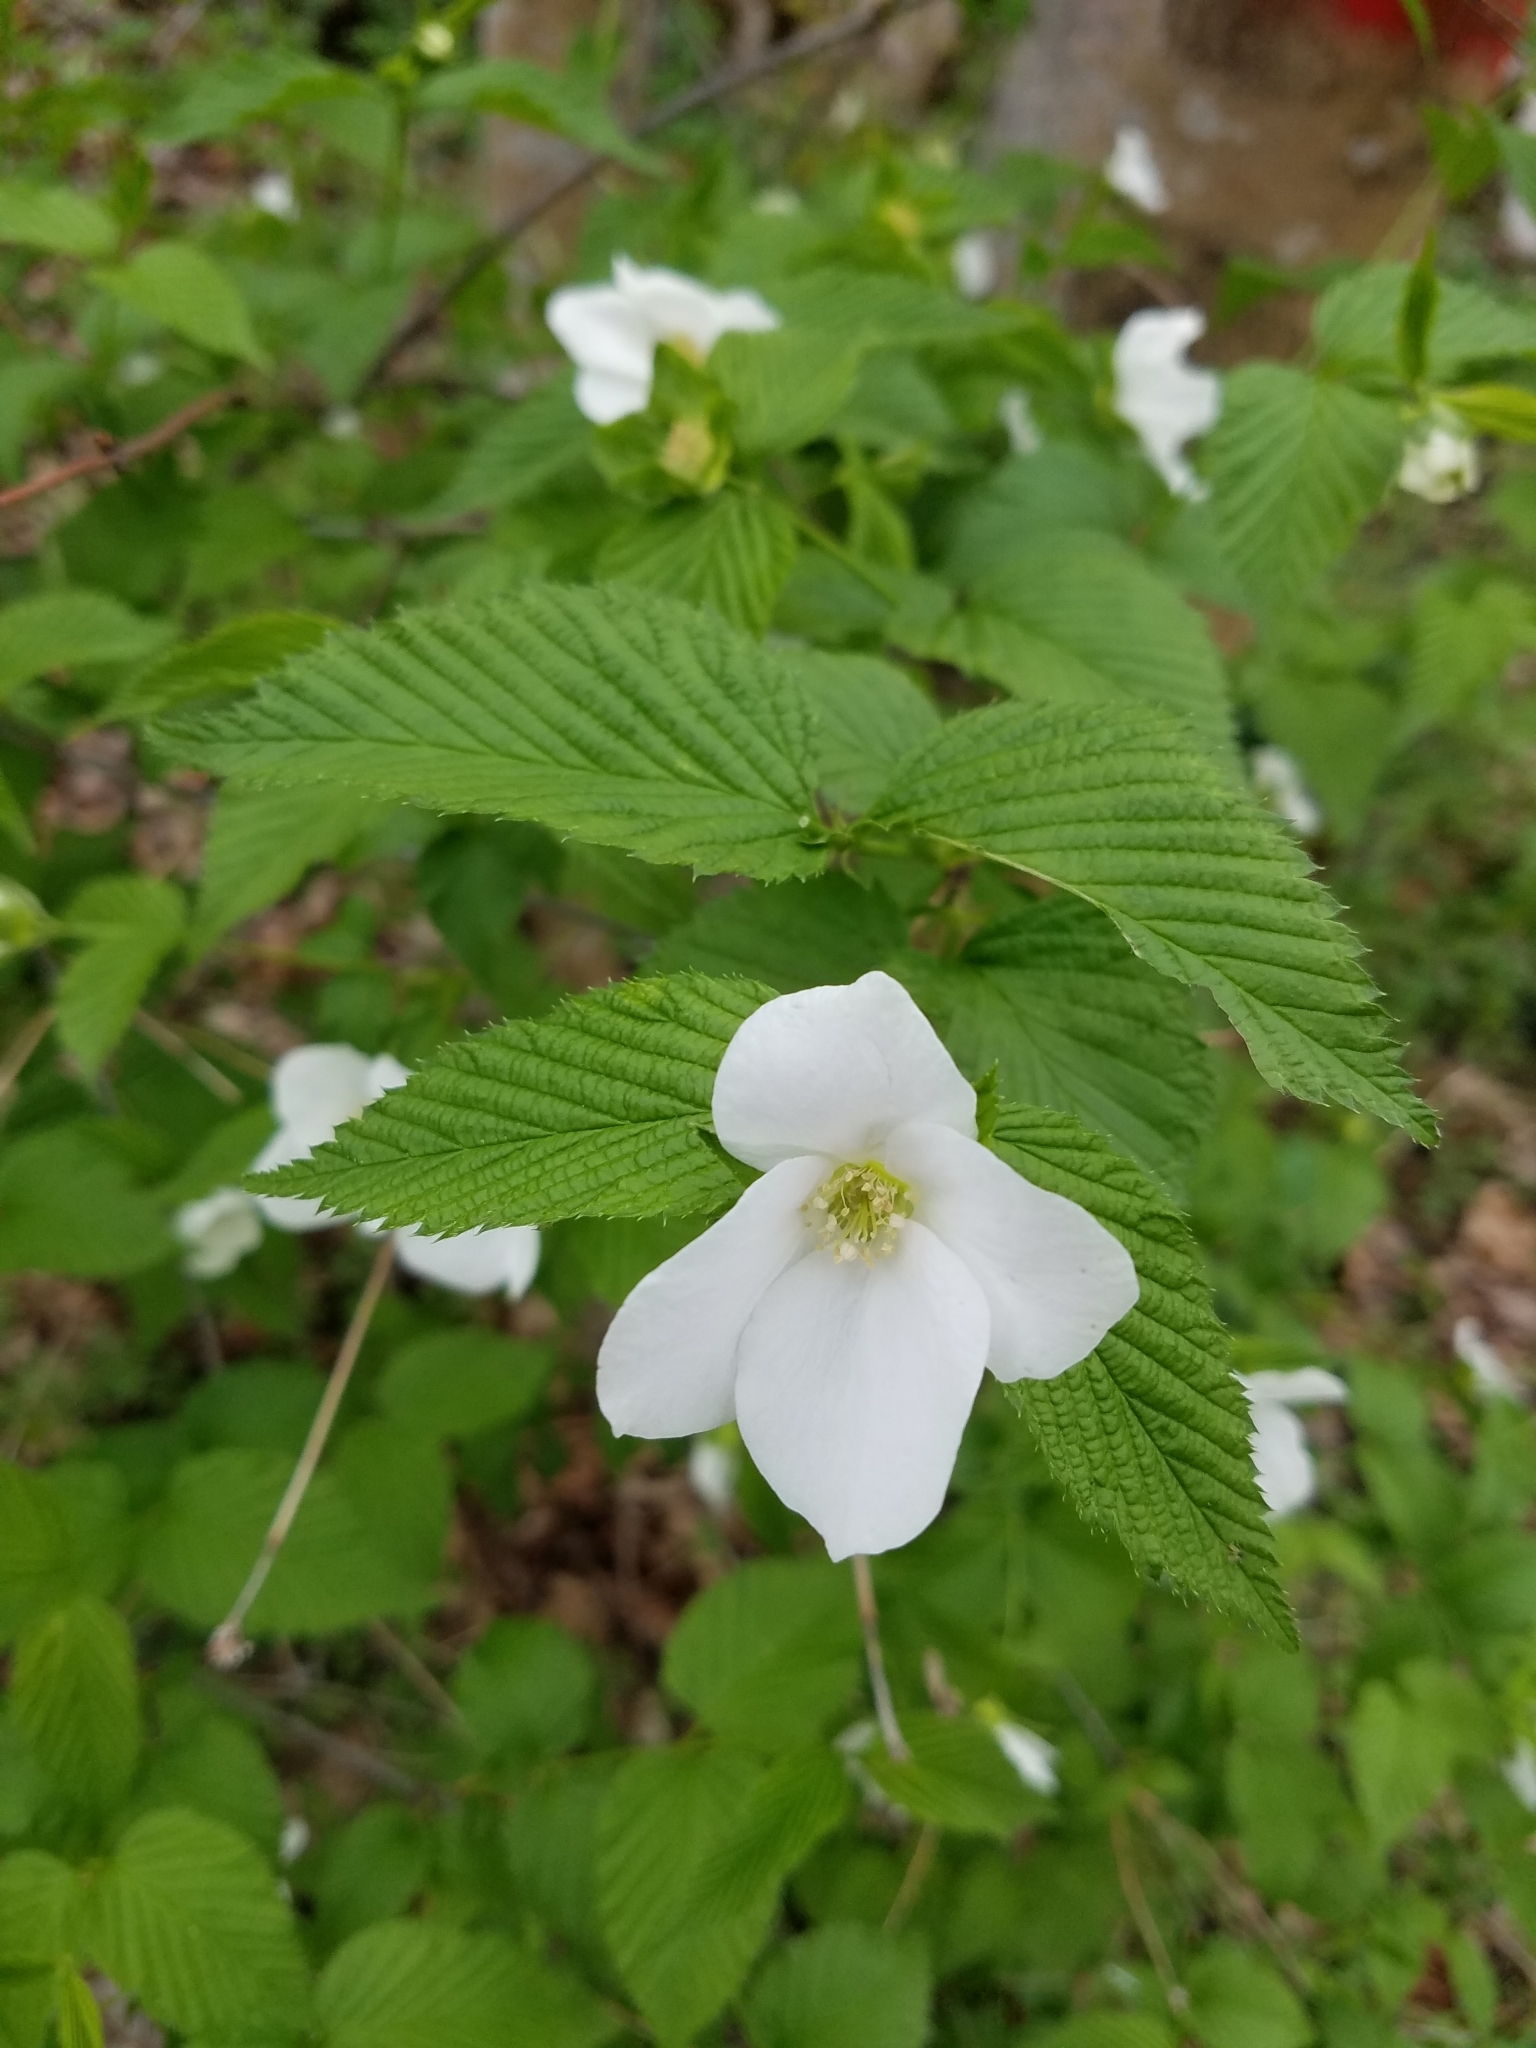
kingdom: Plantae
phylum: Tracheophyta
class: Magnoliopsida
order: Rosales
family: Rosaceae
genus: Rhodotypos
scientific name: Rhodotypos scandens
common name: Jetbead
